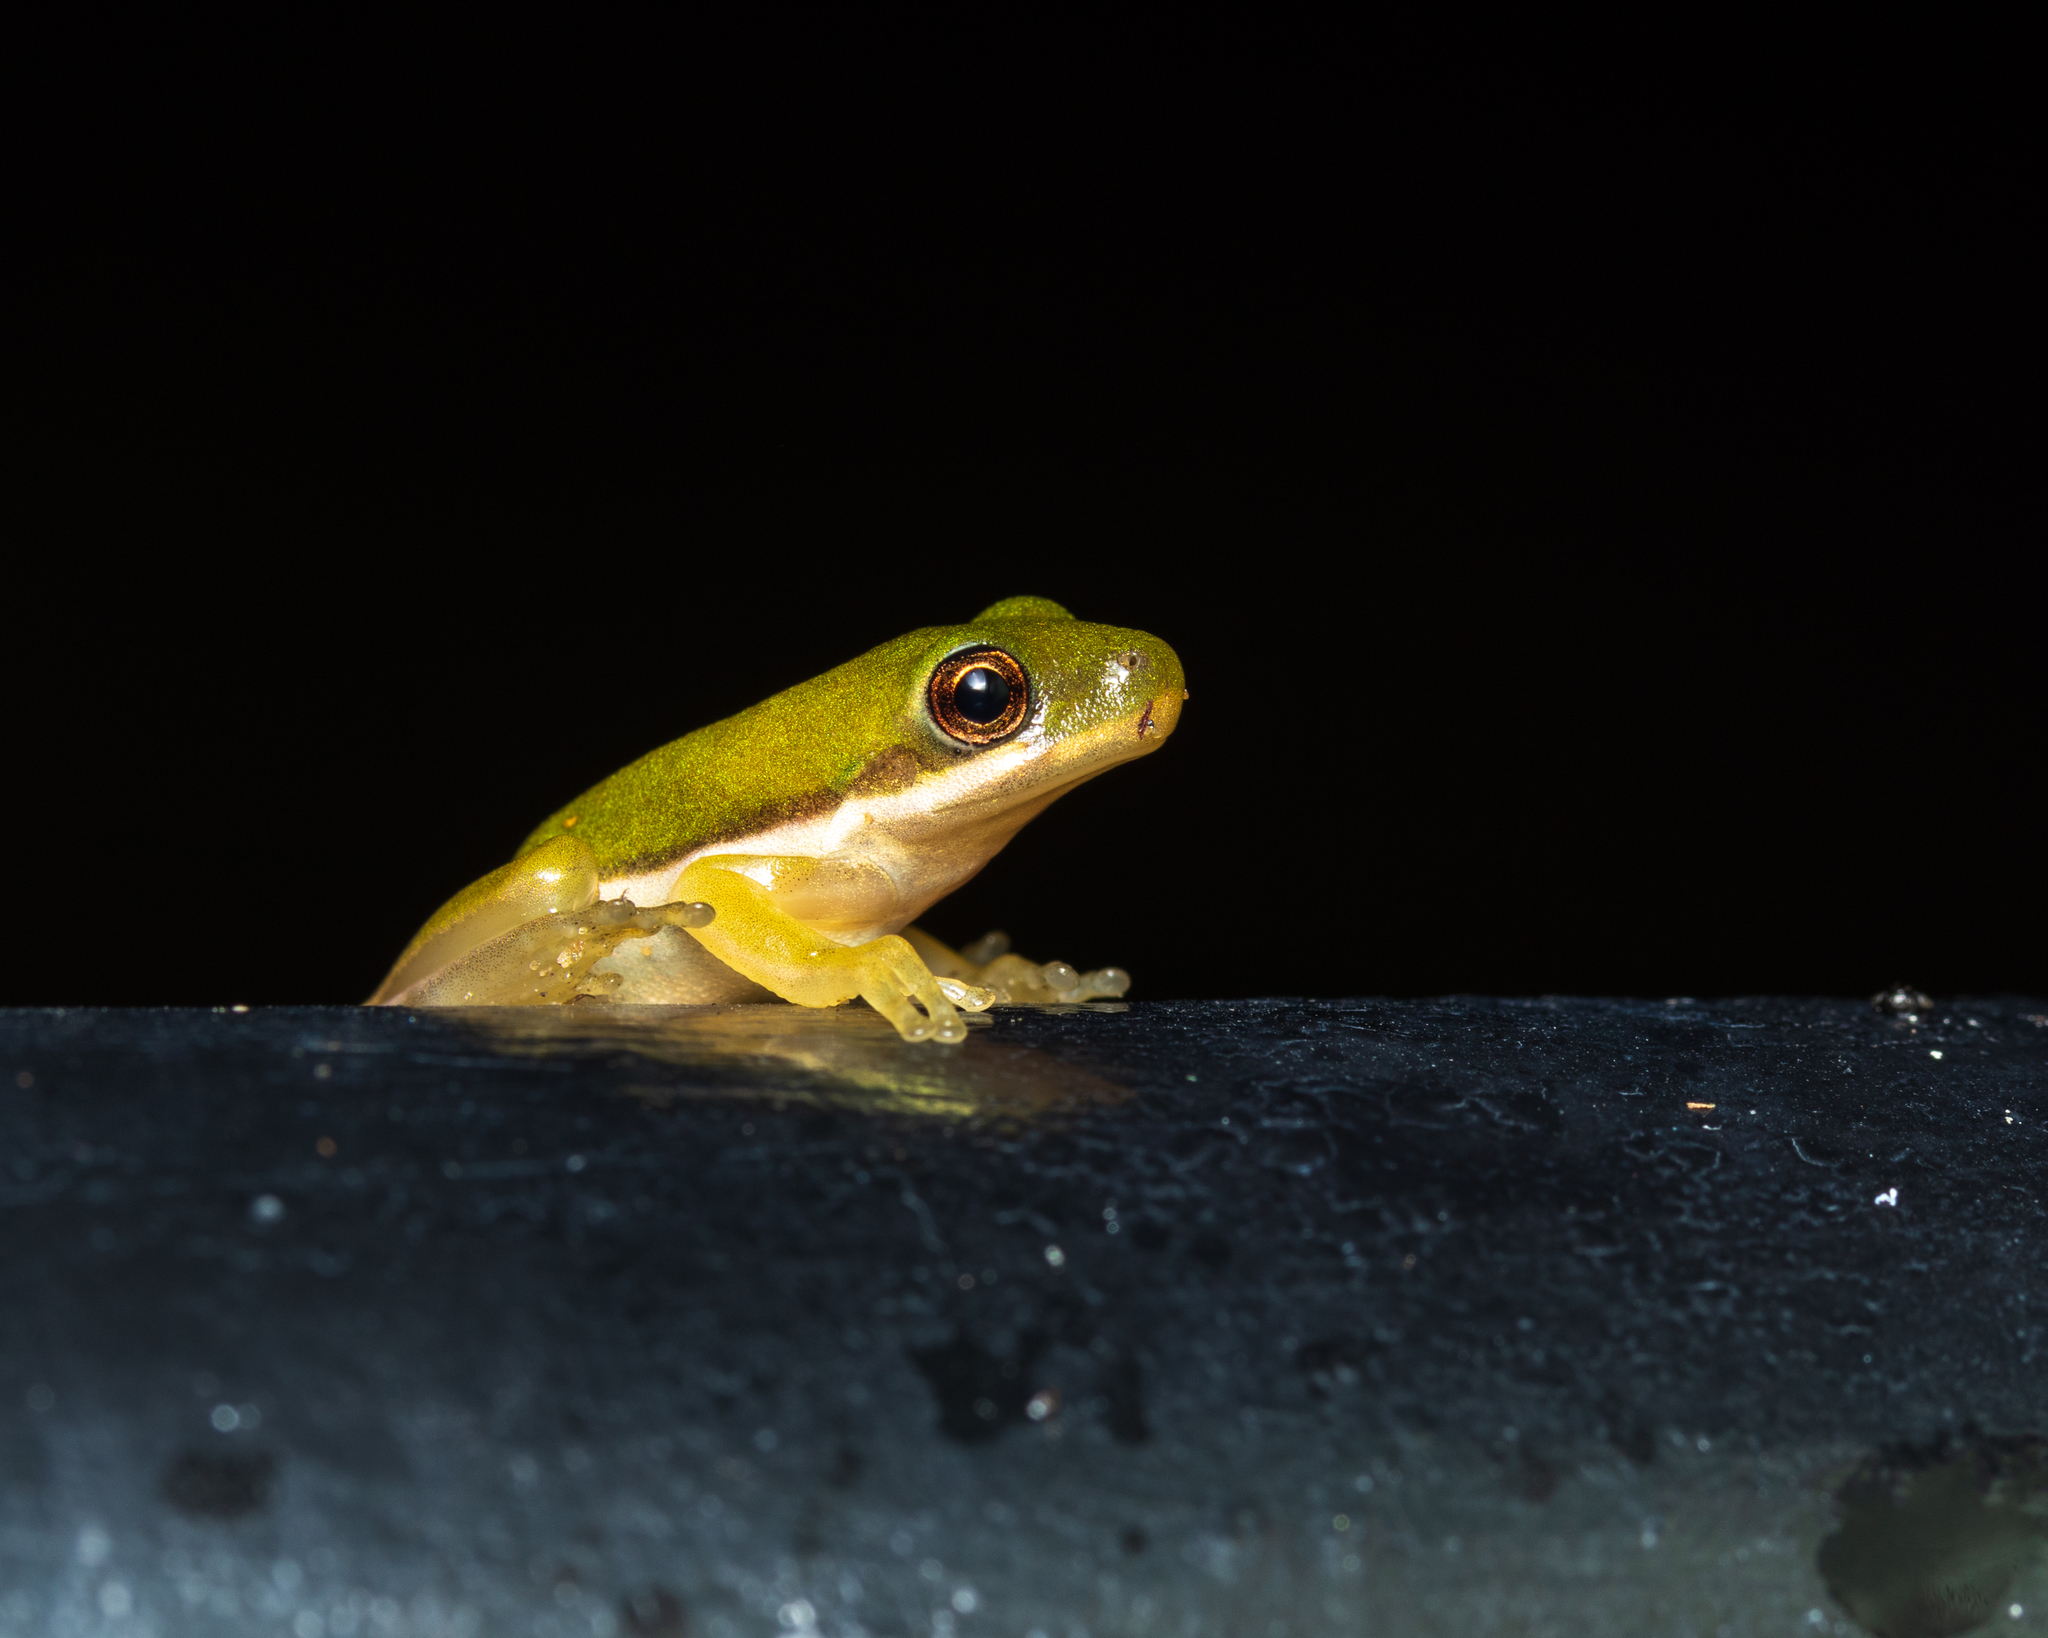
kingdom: Animalia
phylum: Chordata
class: Amphibia
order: Anura
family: Hylidae
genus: Dryophytes
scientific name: Dryophytes cinereus
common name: Green treefrog
